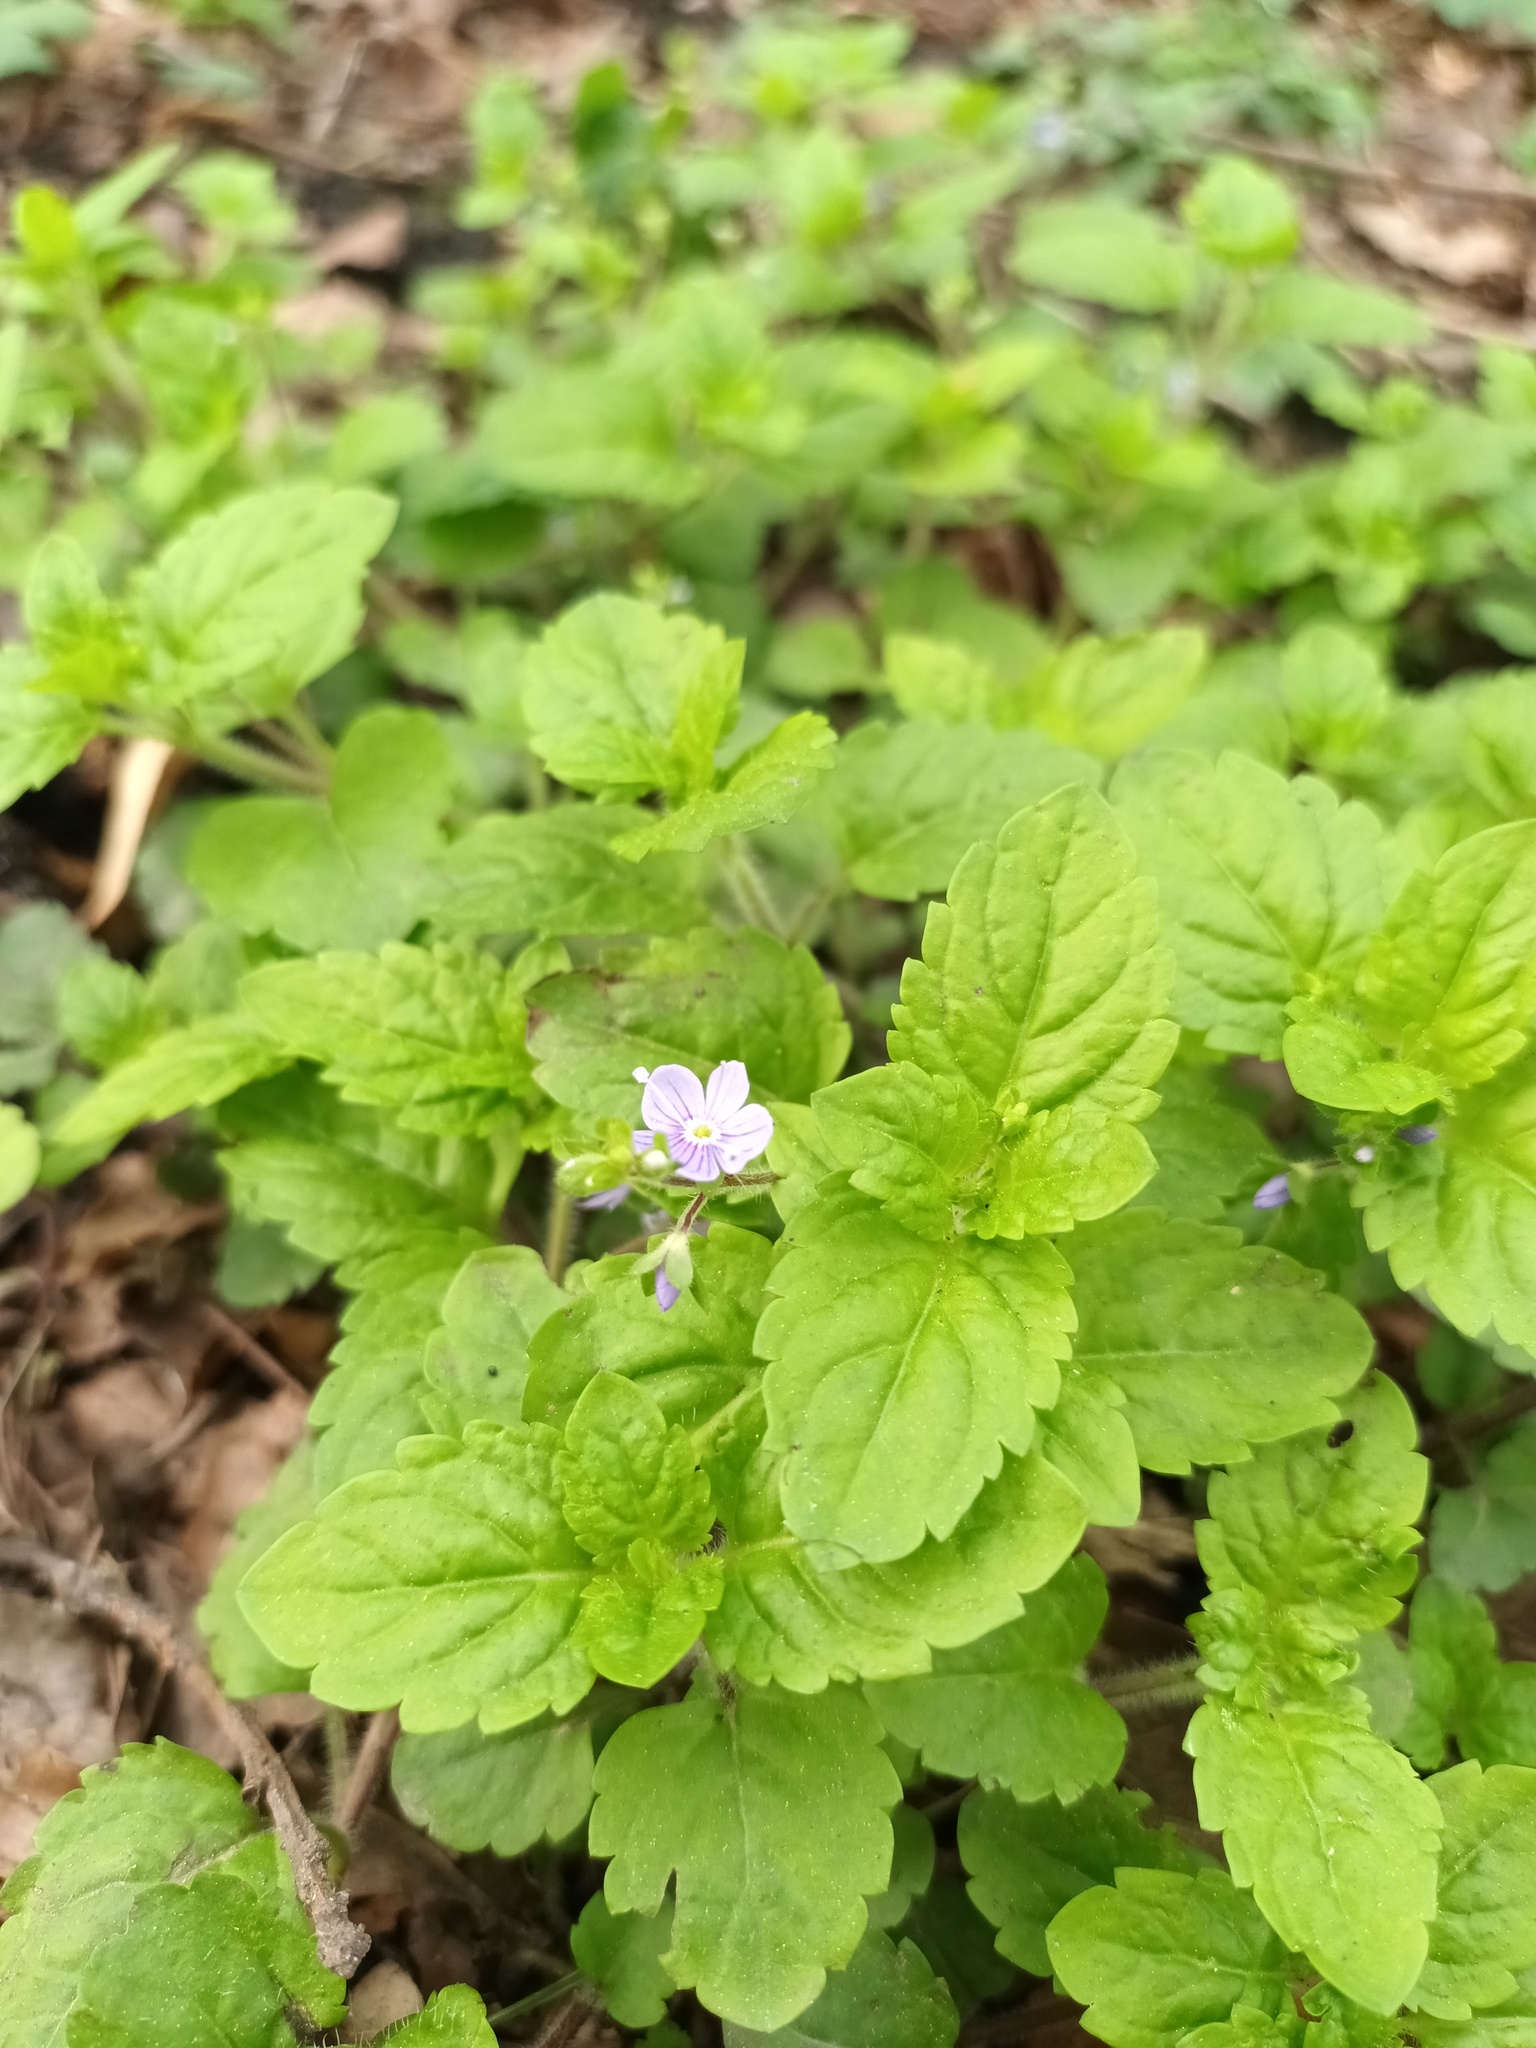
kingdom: Plantae
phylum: Tracheophyta
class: Magnoliopsida
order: Lamiales
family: Plantaginaceae
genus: Veronica
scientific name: Veronica montana
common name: Wood speedwell
